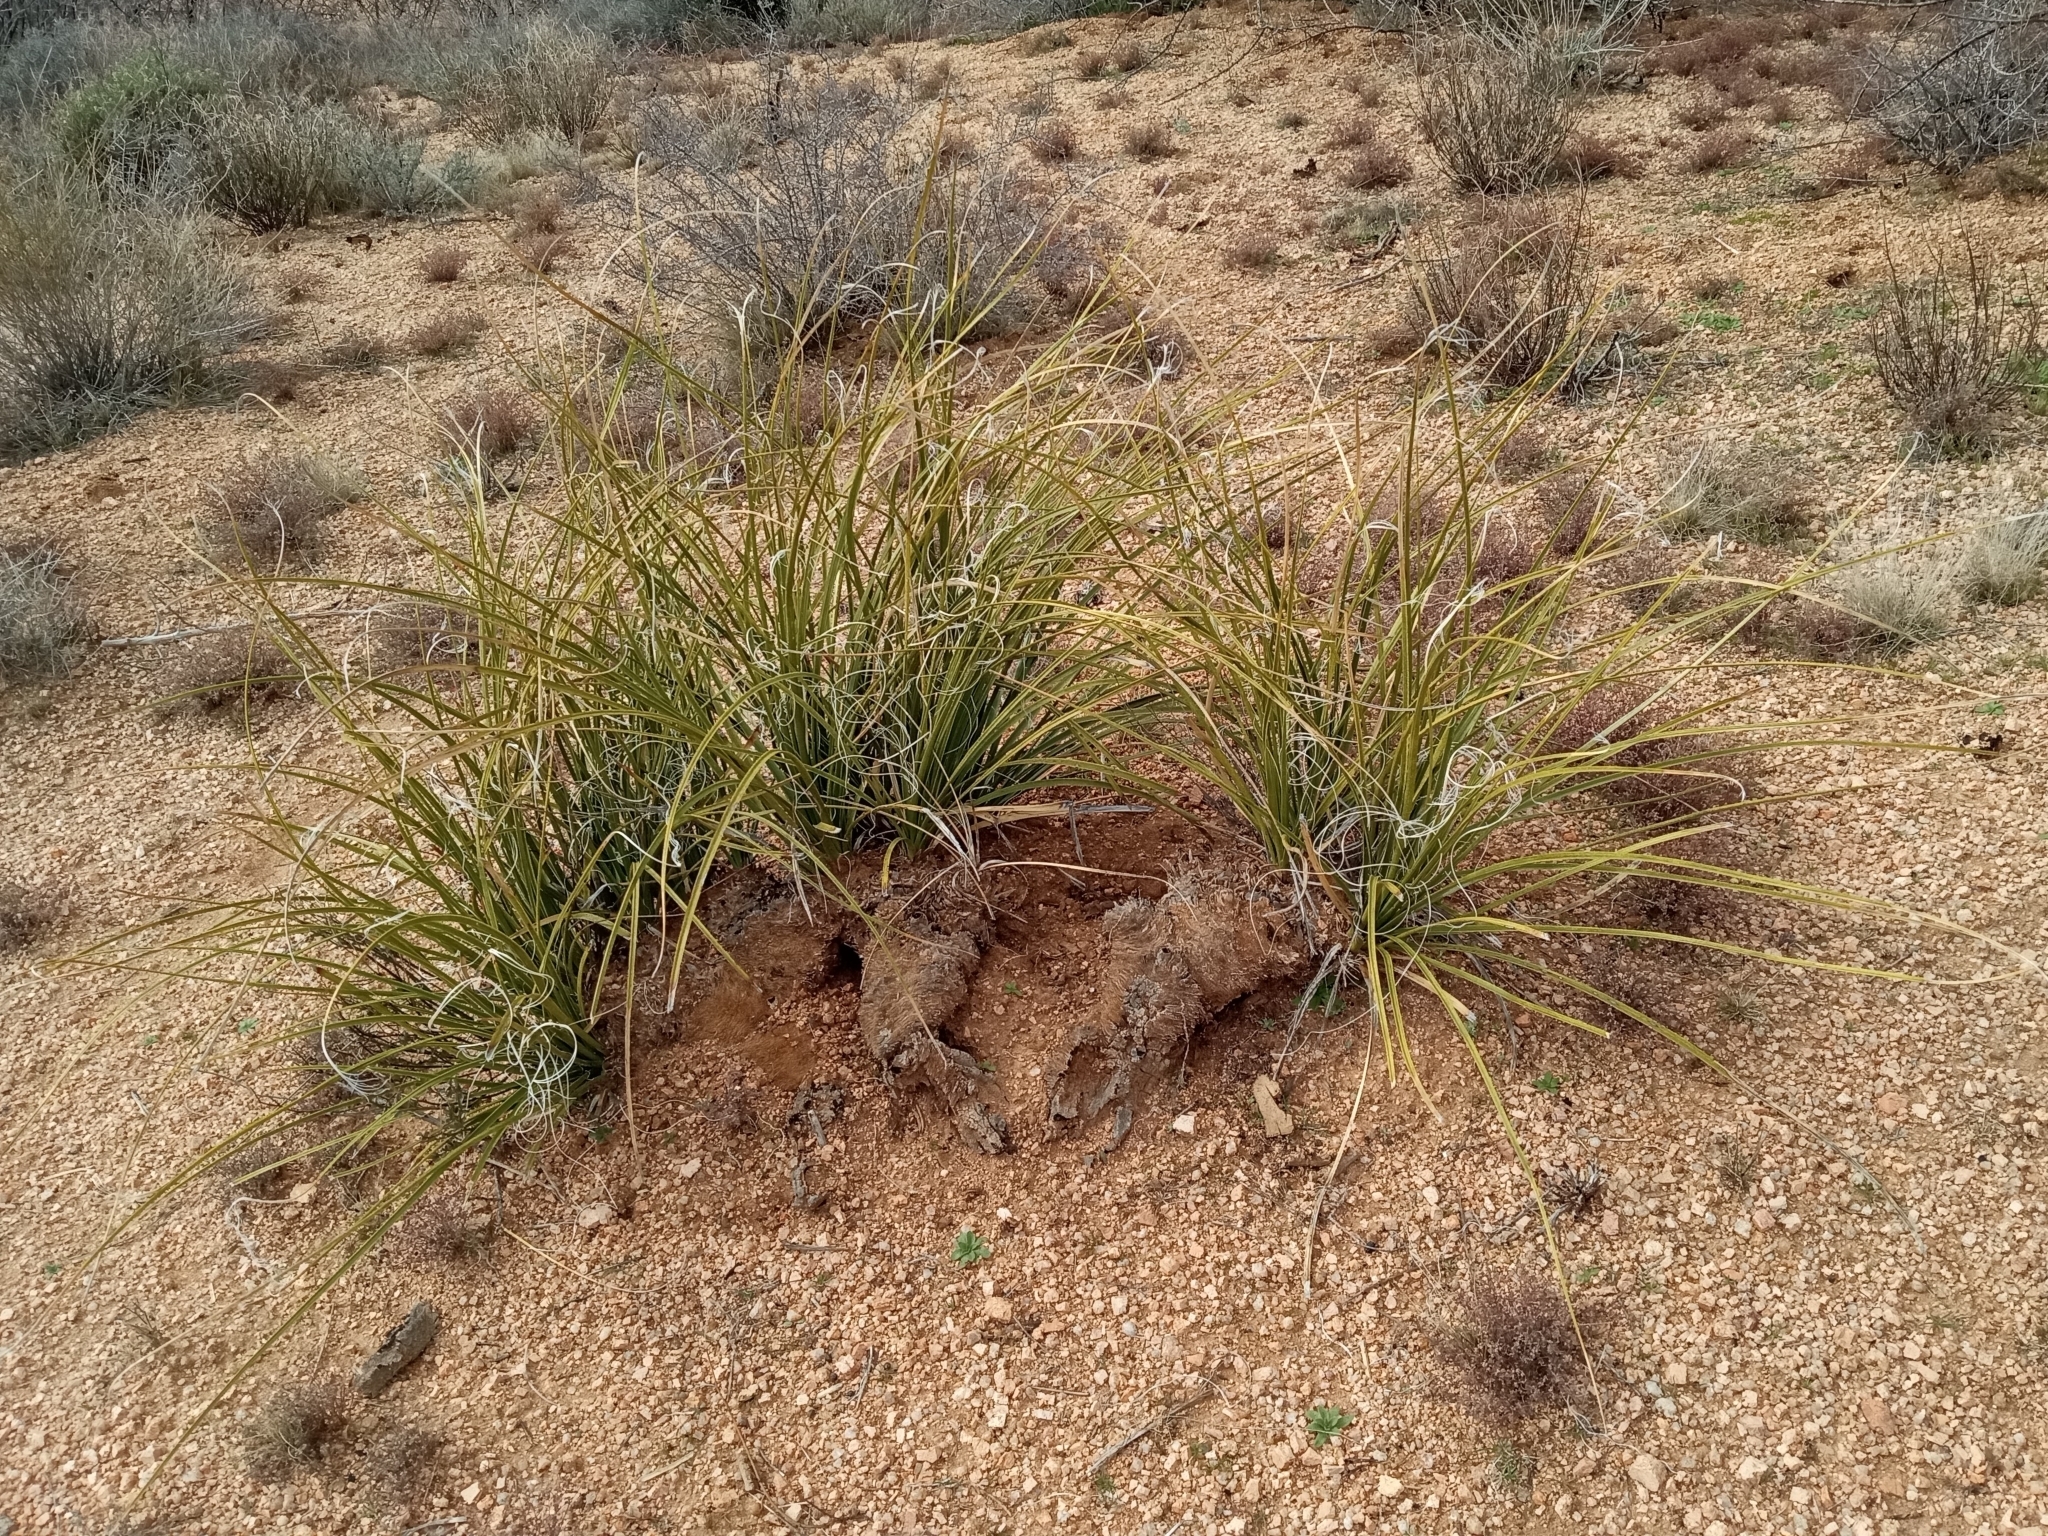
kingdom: Plantae
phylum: Tracheophyta
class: Liliopsida
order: Asparagales
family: Asparagaceae
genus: Nolina
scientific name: Nolina microcarpa
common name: Bear-grass
